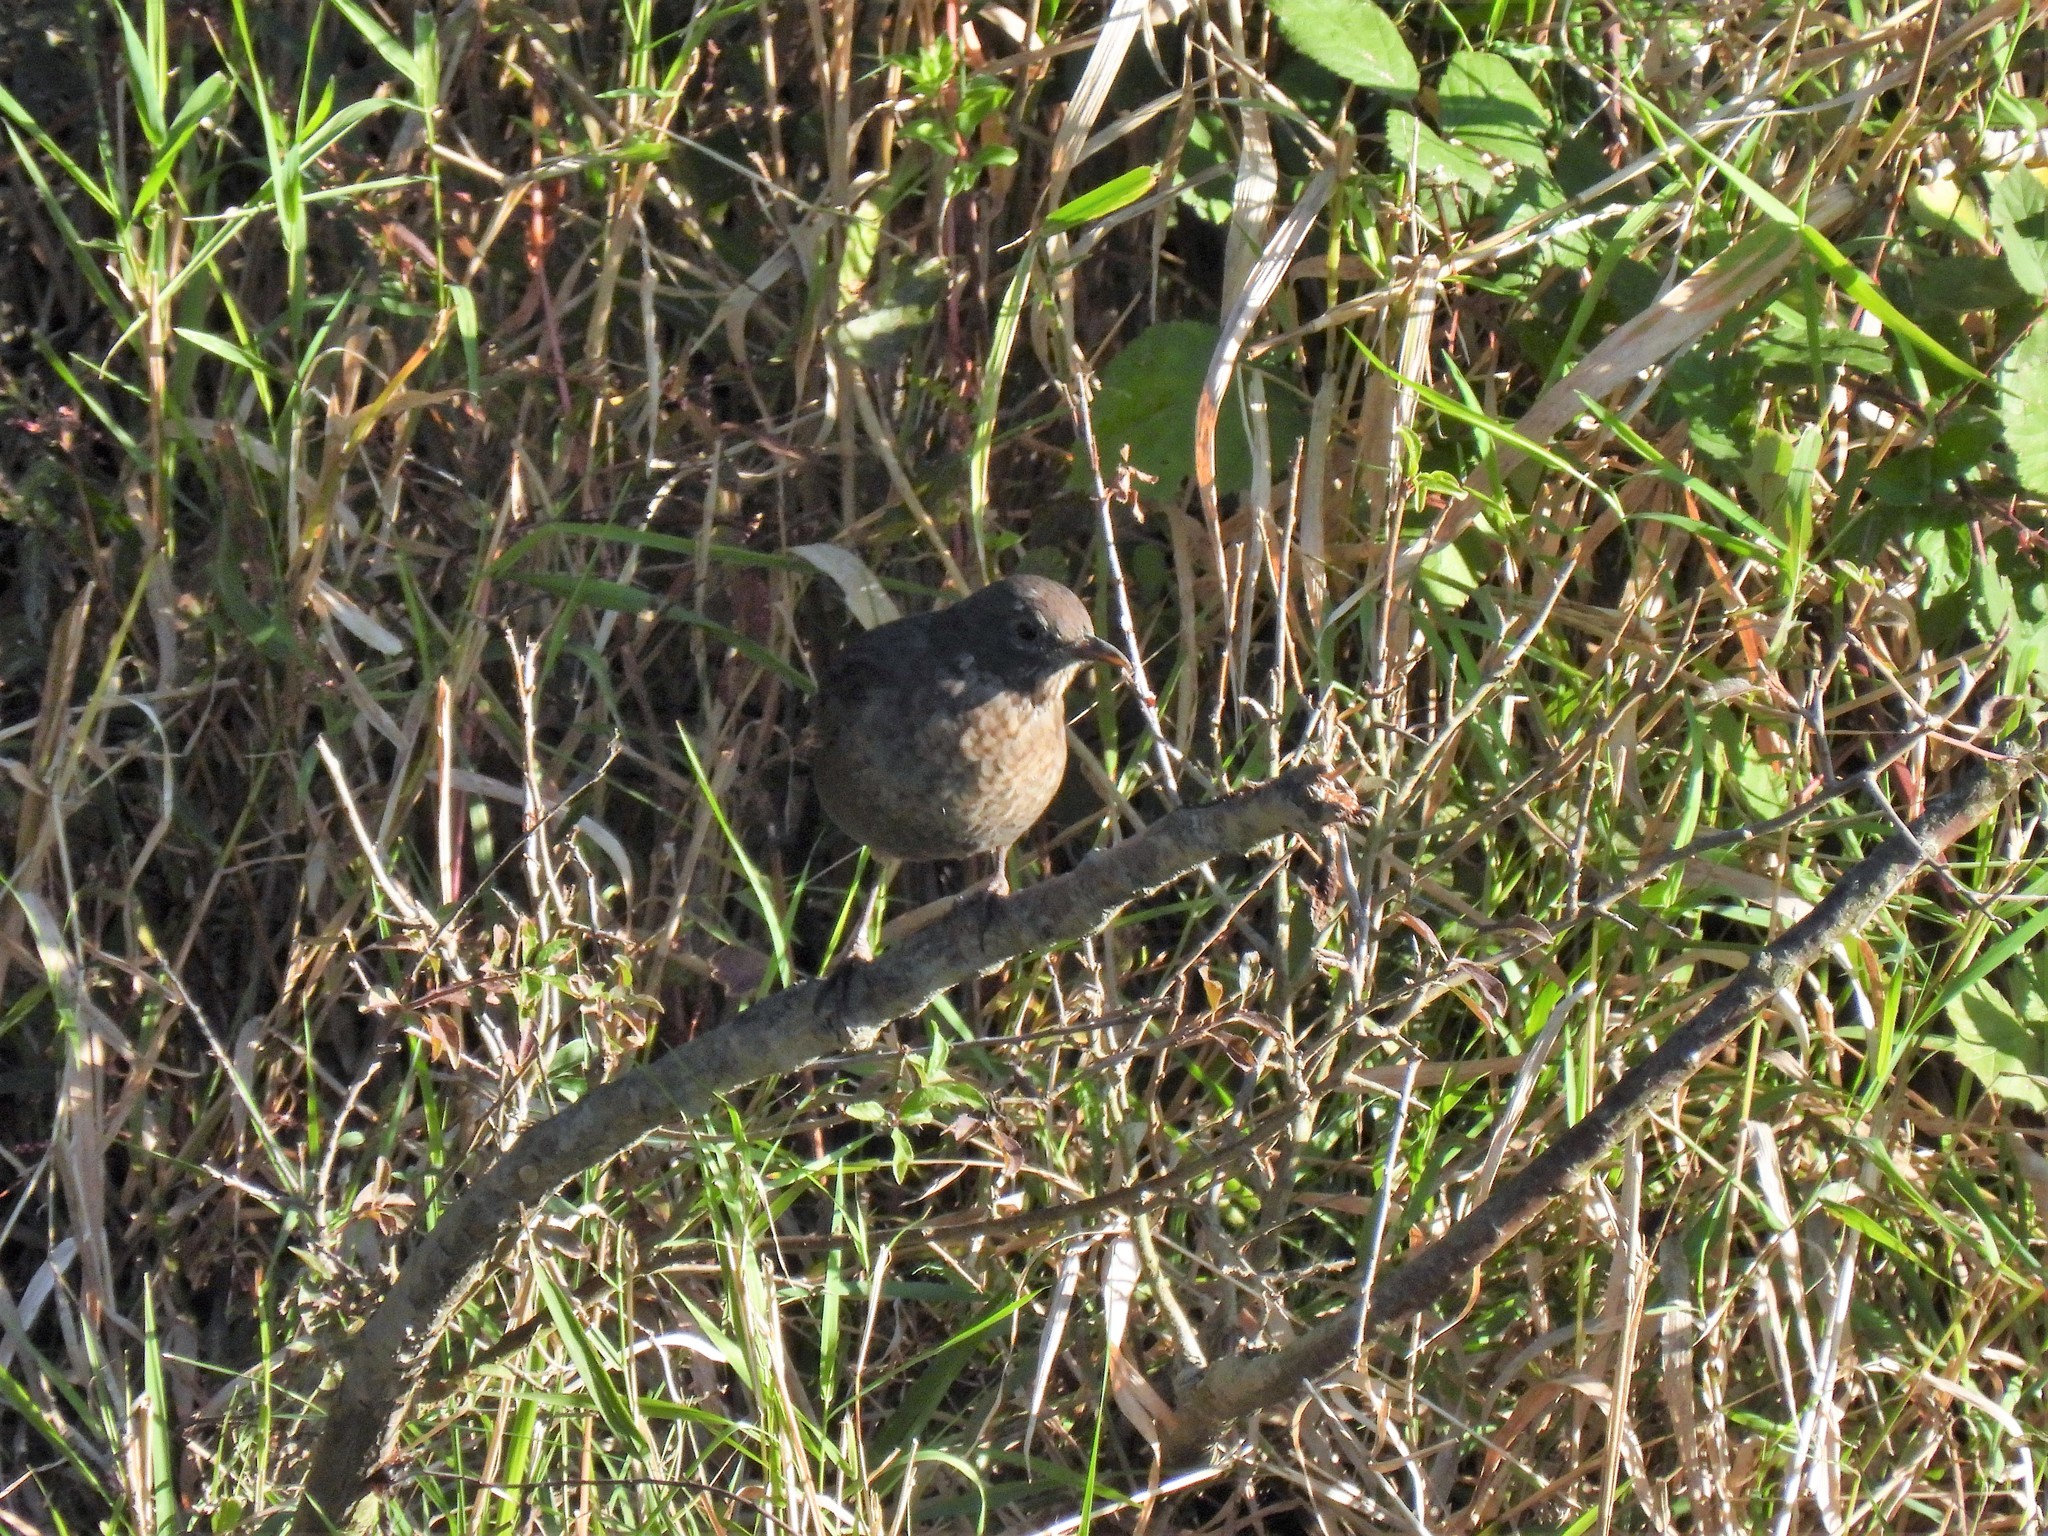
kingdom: Animalia
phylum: Chordata
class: Aves
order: Passeriformes
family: Turdidae
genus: Turdus
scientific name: Turdus merula
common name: Common blackbird
